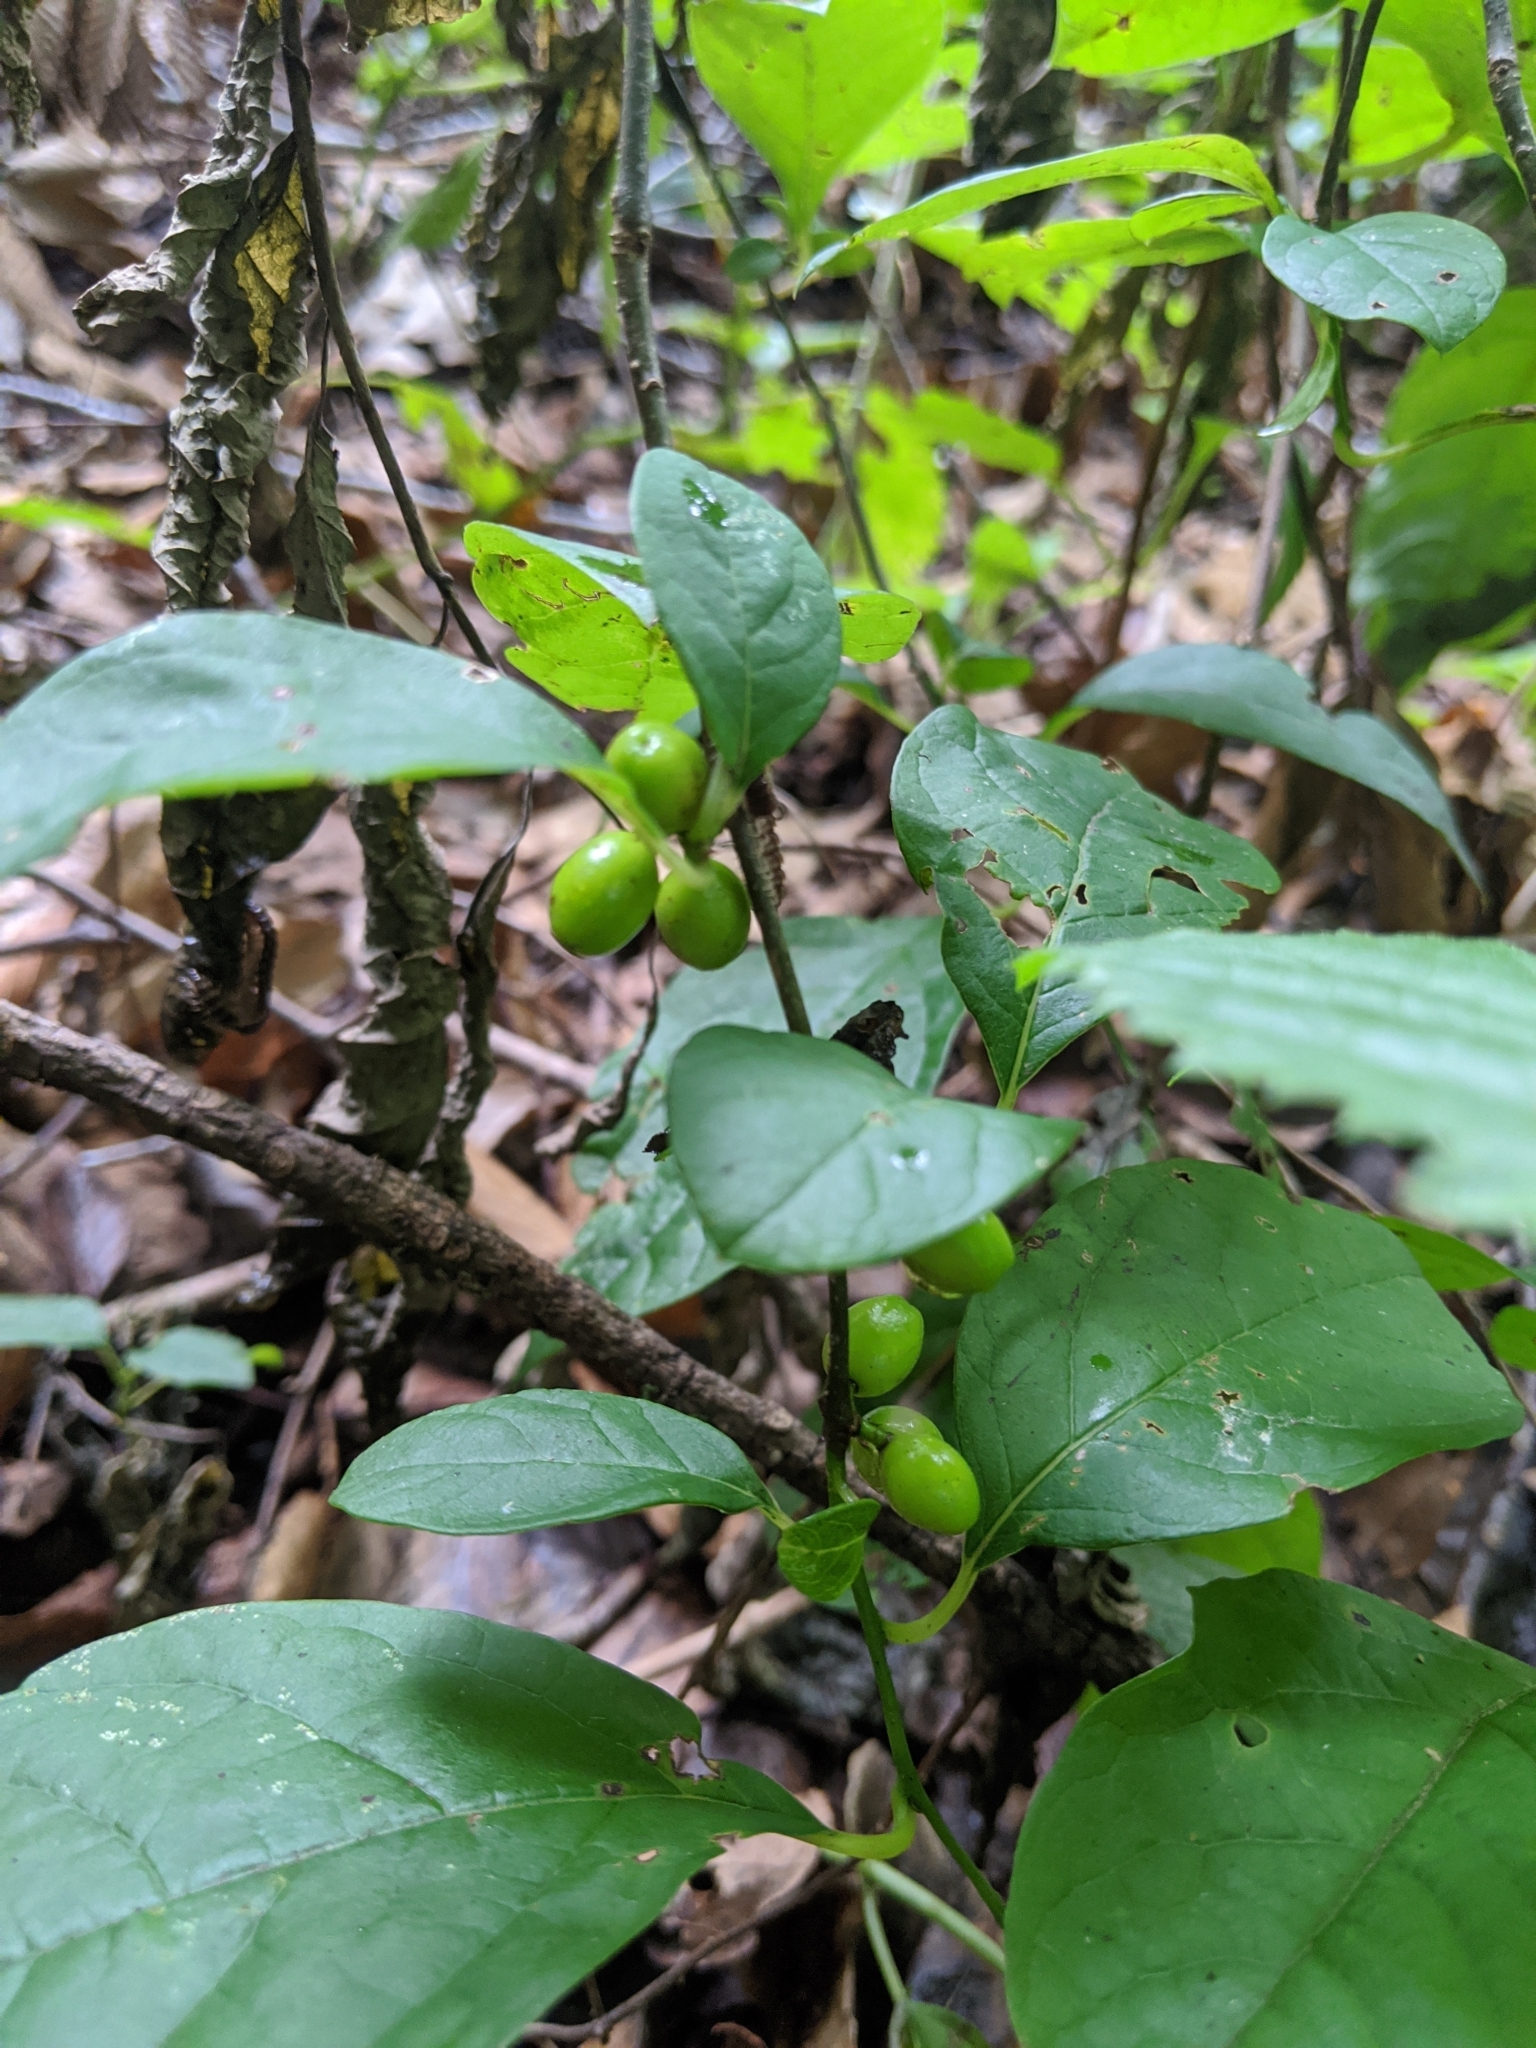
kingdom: Plantae
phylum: Tracheophyta
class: Magnoliopsida
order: Laurales
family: Lauraceae
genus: Lindera
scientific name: Lindera benzoin
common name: Spicebush
